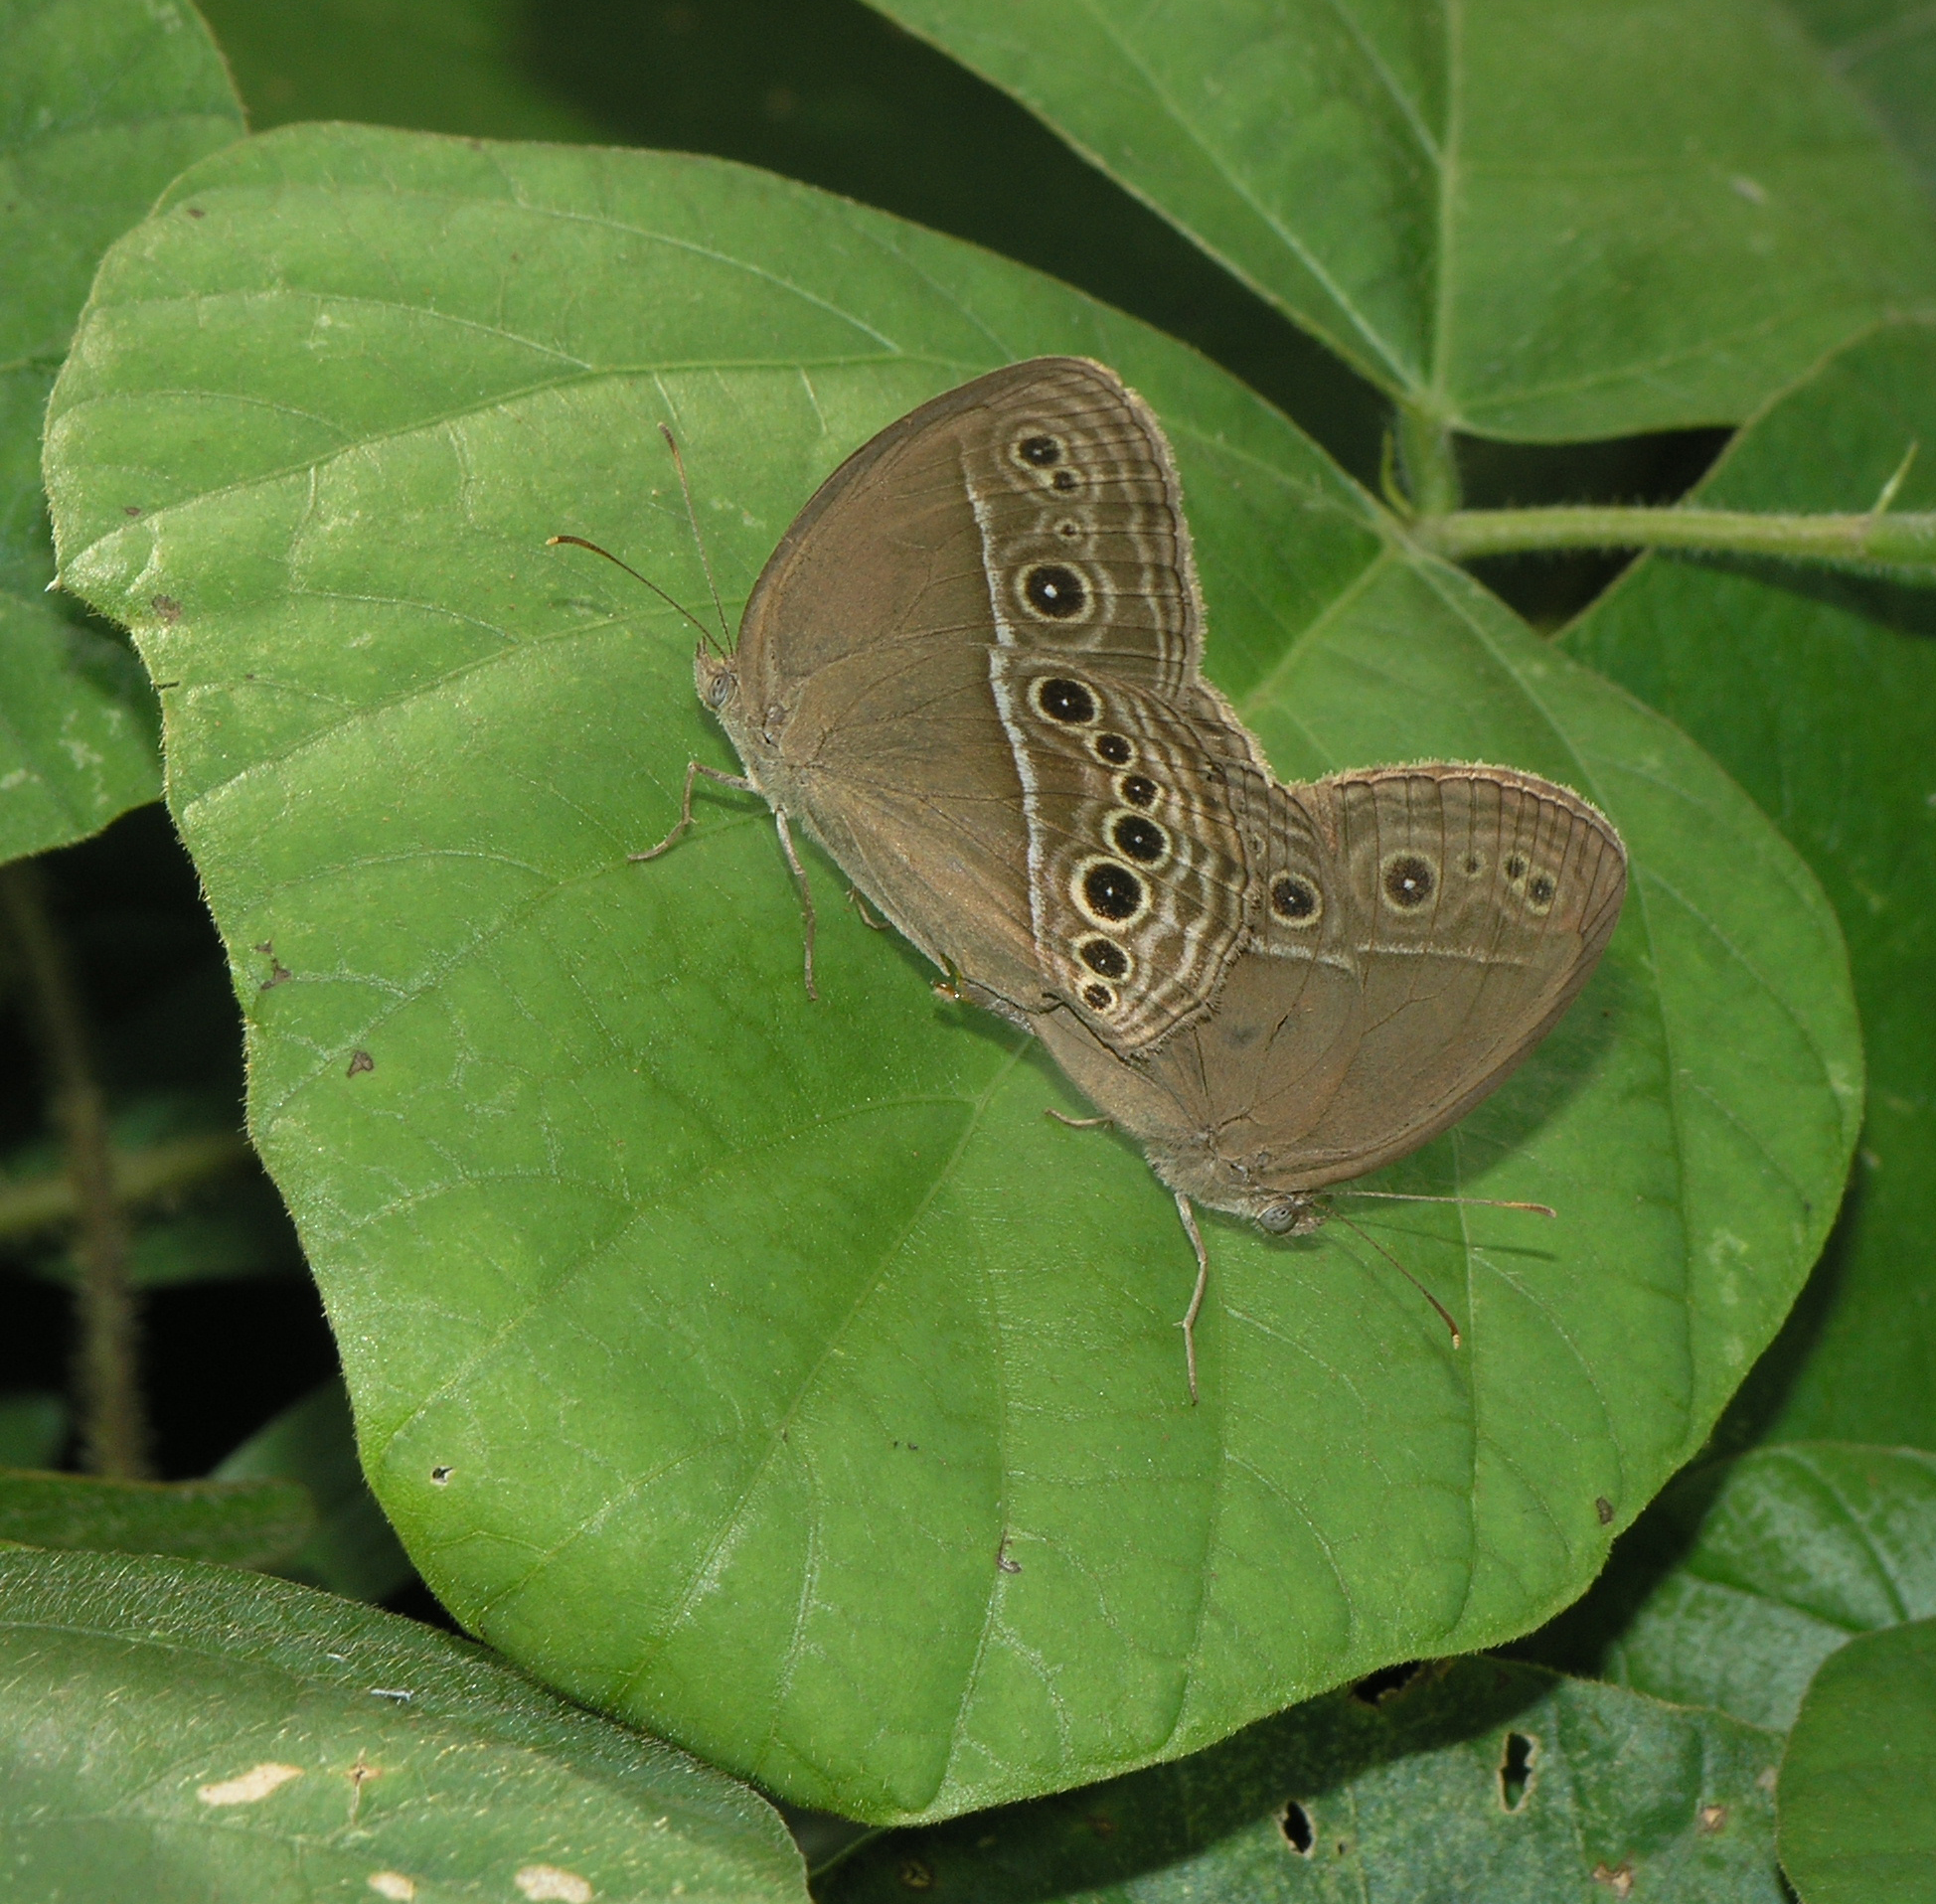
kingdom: Animalia
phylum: Arthropoda
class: Insecta
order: Lepidoptera
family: Nymphalidae
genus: Mycalesis
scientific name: Mycalesis perseus
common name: Dingy bushbrown
